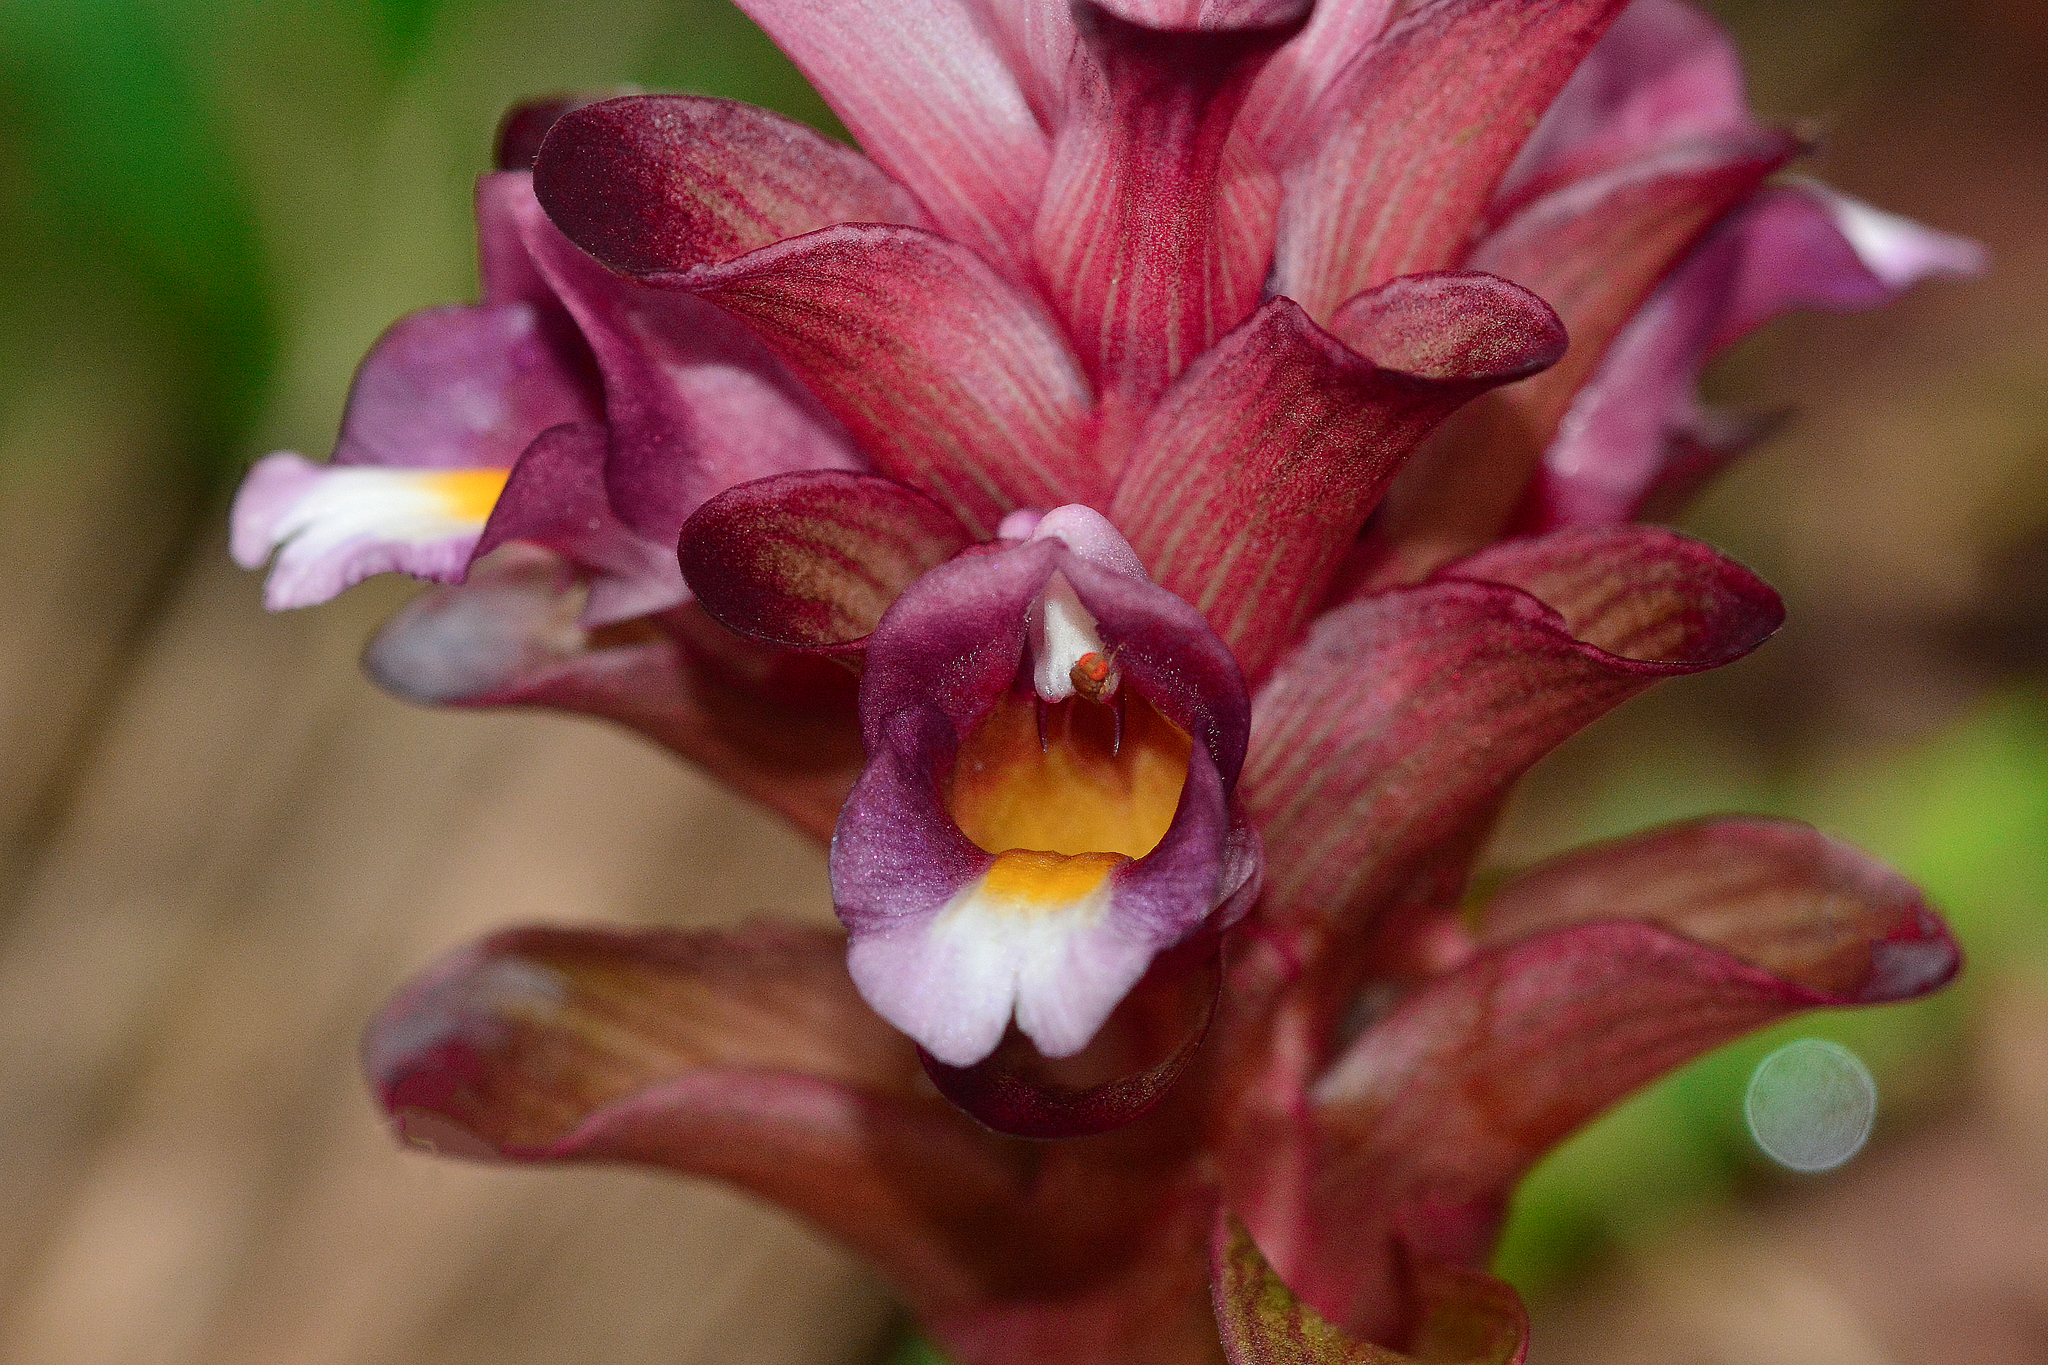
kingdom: Plantae
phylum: Tracheophyta
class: Liliopsida
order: Zingiberales
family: Zingiberaceae
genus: Curcuma
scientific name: Curcuma decipiens
